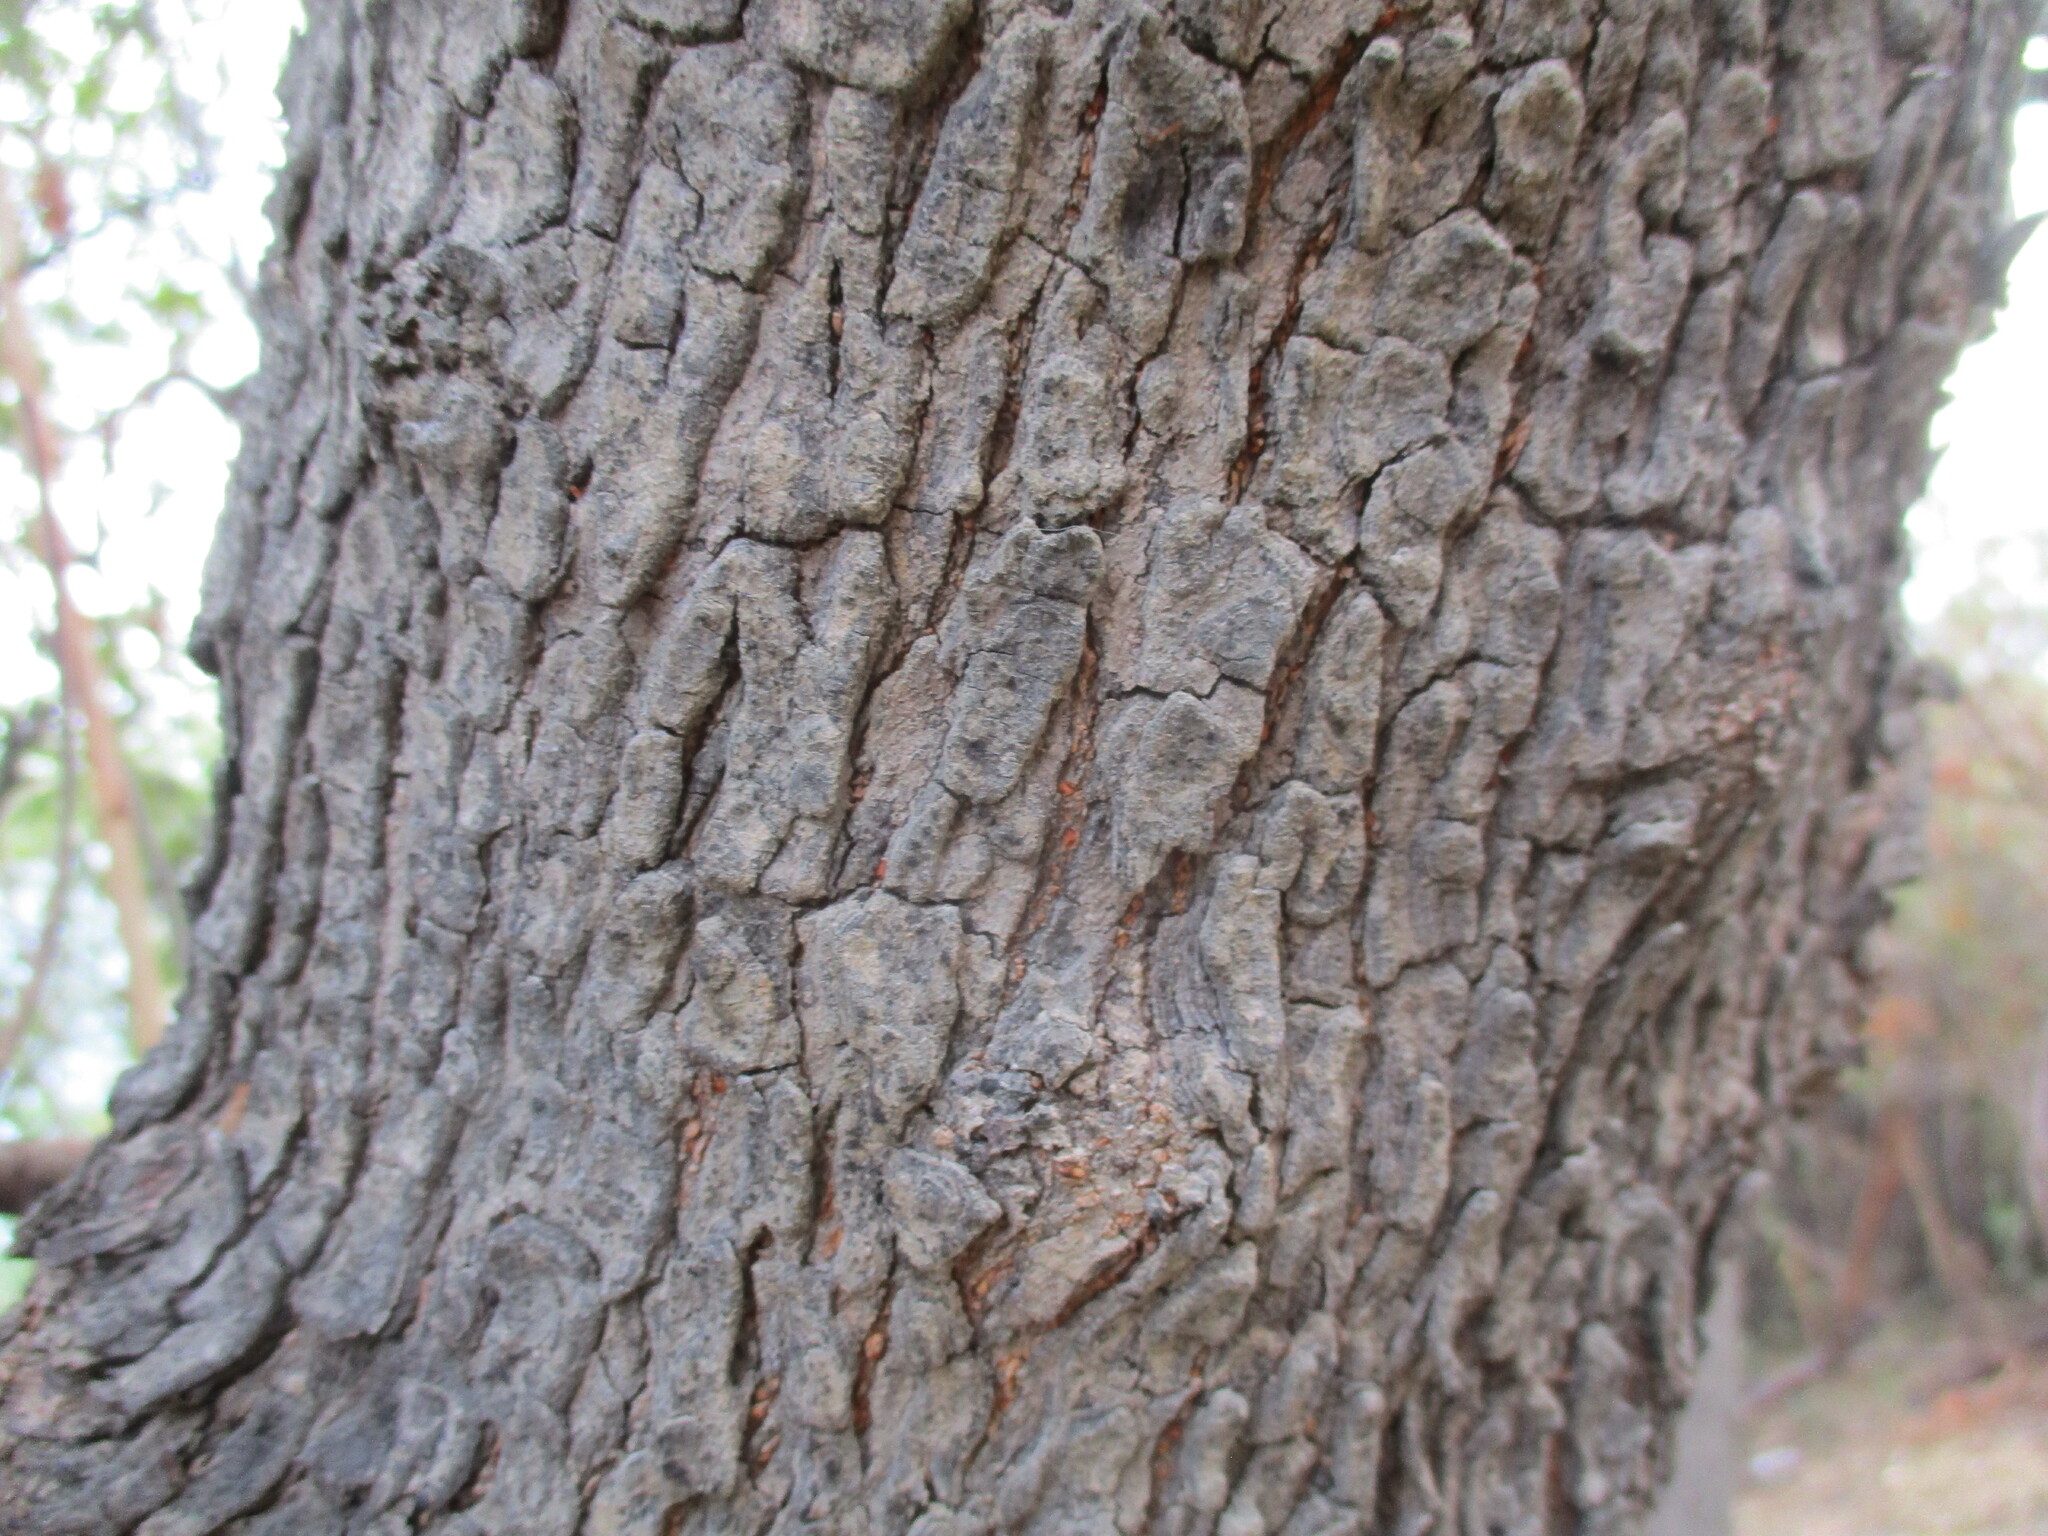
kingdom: Plantae
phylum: Tracheophyta
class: Magnoliopsida
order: Sapindales
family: Anacardiaceae
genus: Searsia
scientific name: Searsia quartiniana
